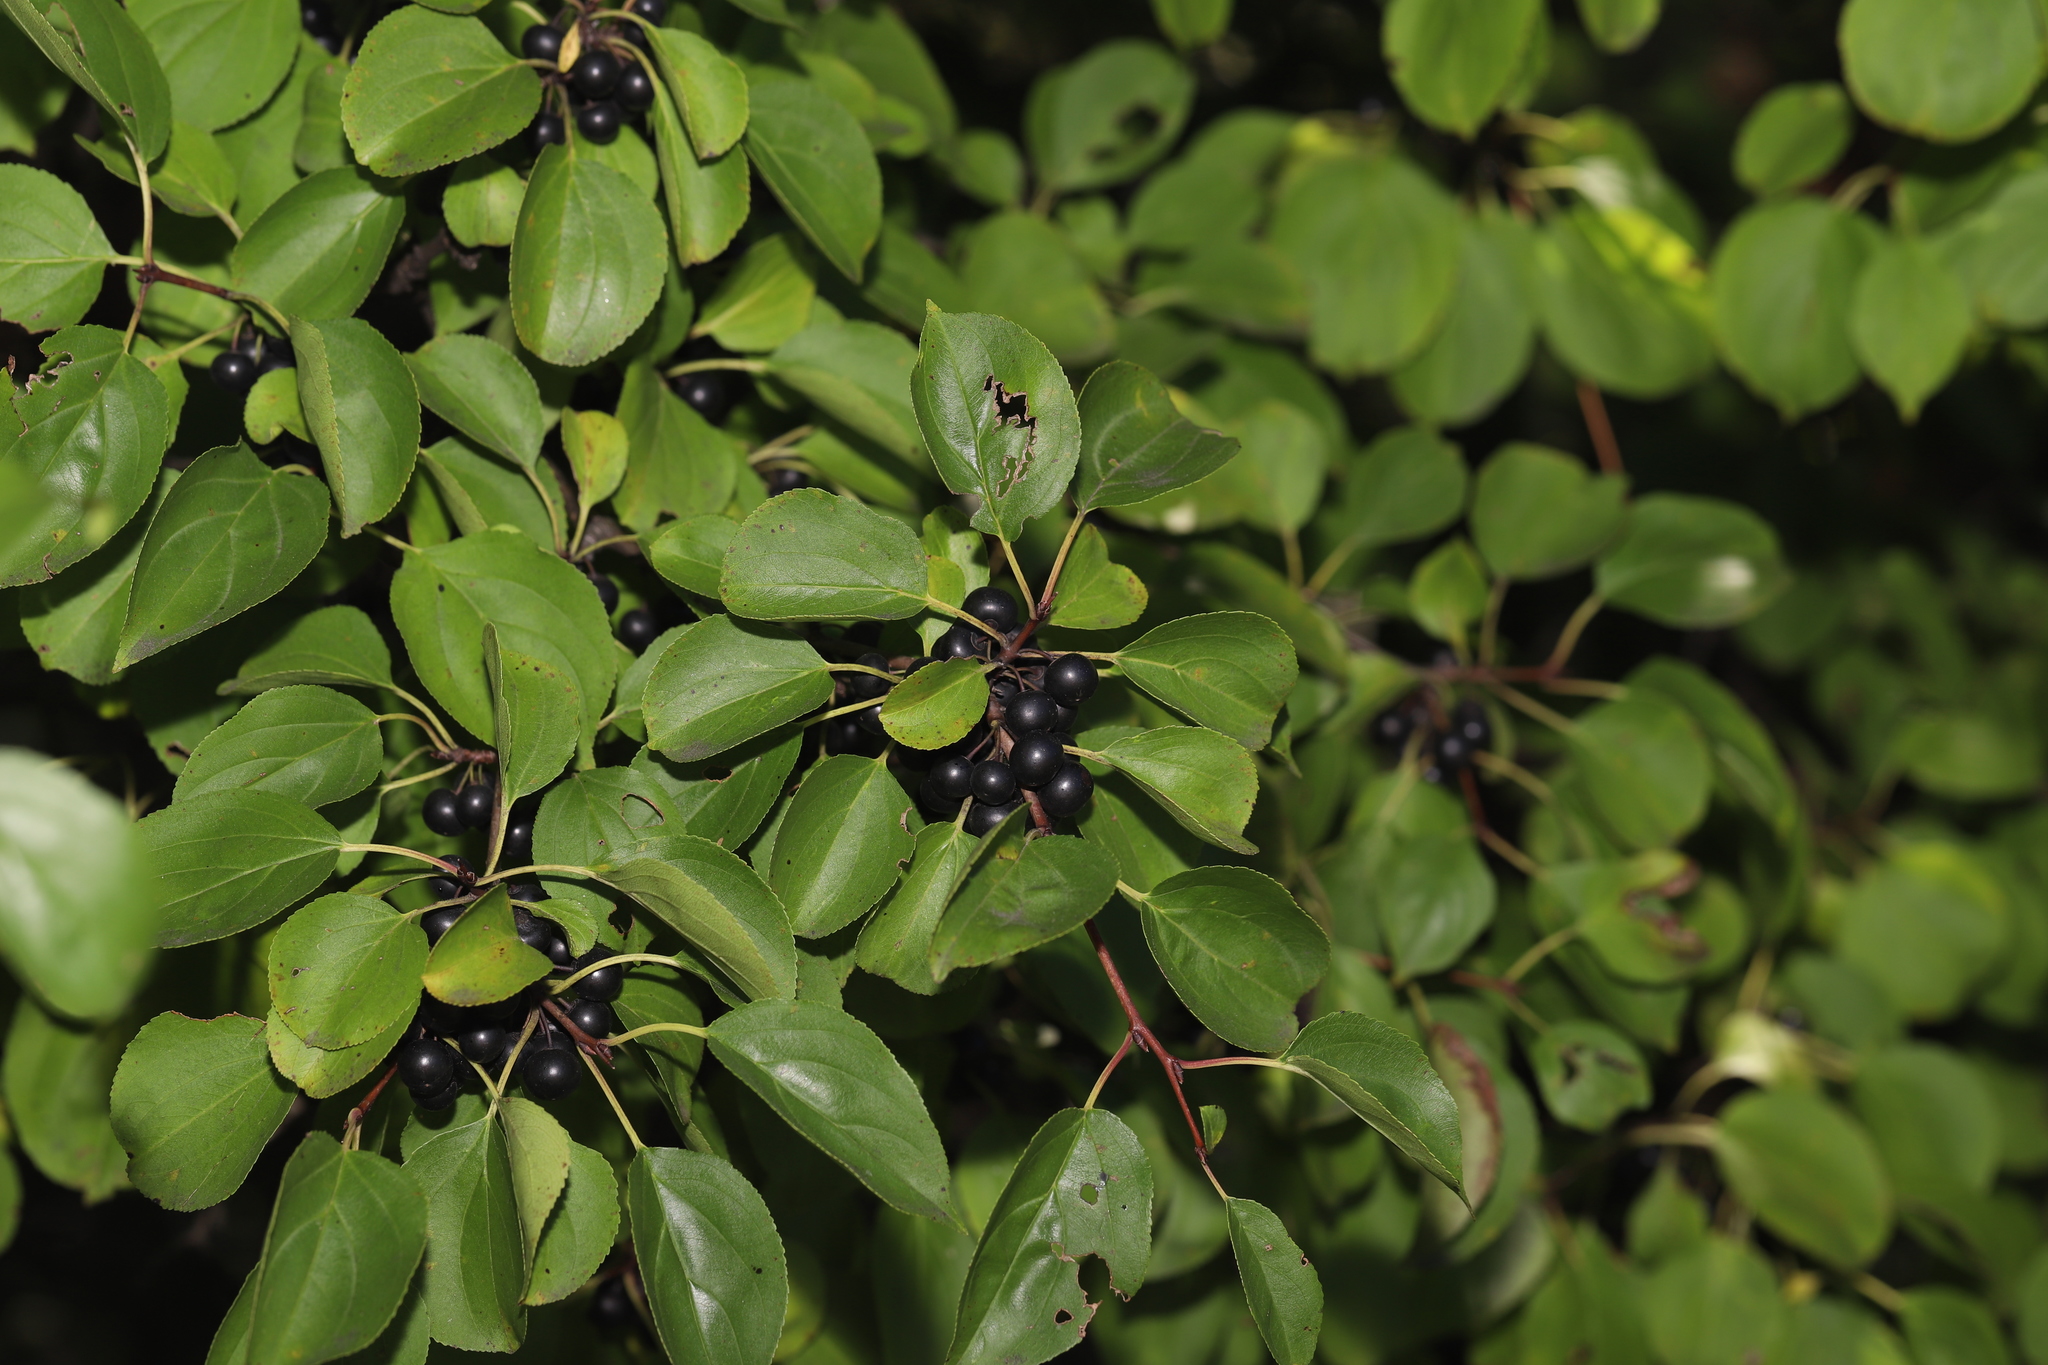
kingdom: Plantae
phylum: Tracheophyta
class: Magnoliopsida
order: Rosales
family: Rhamnaceae
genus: Rhamnus
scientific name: Rhamnus cathartica
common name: Common buckthorn
